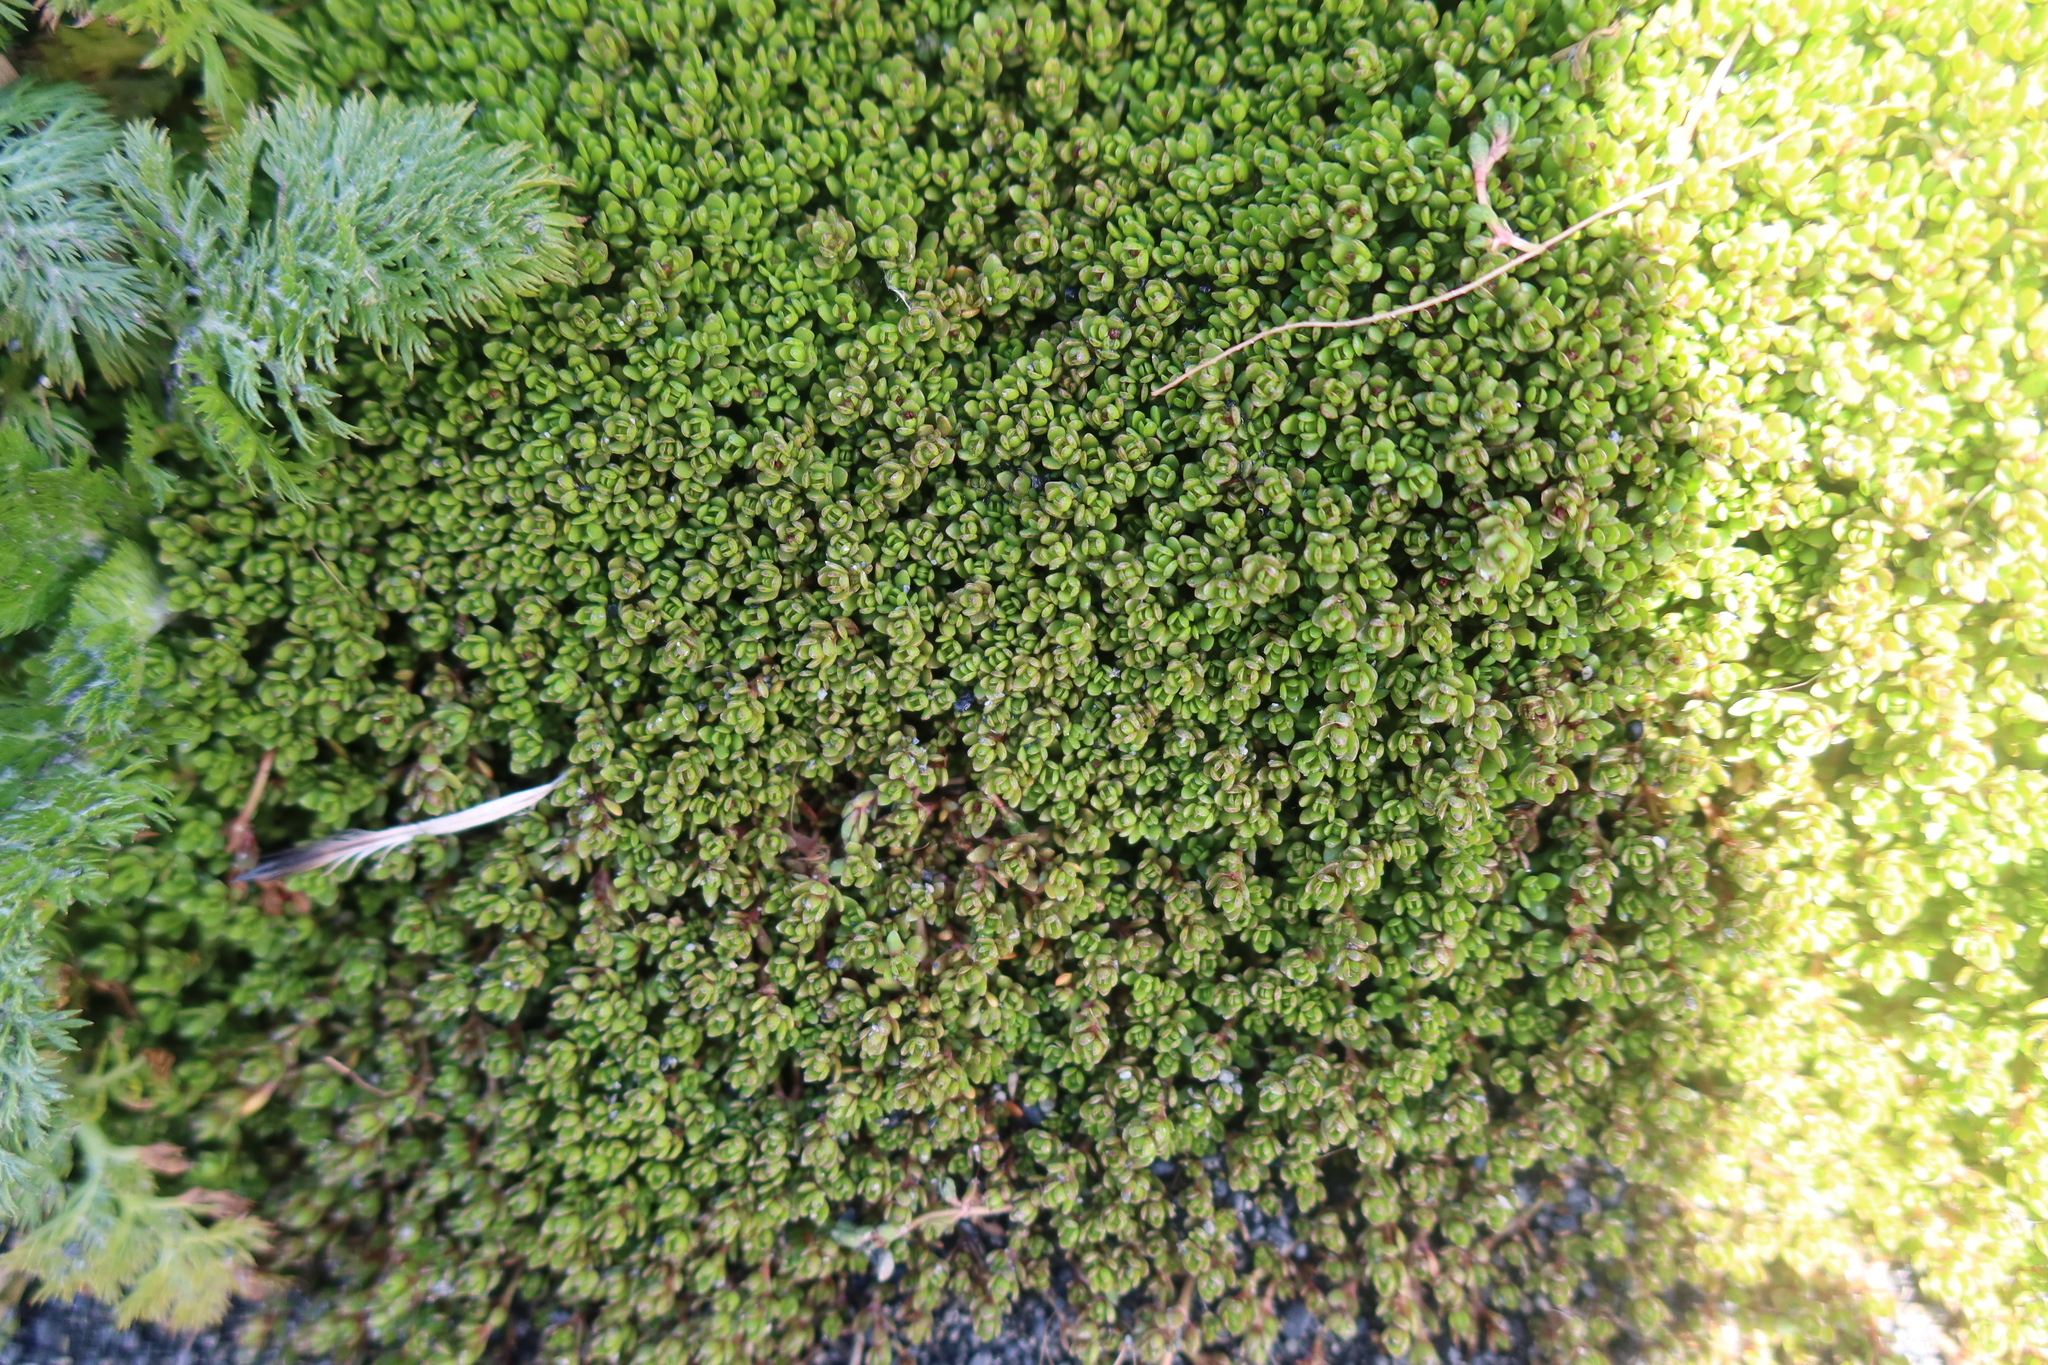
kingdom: Plantae
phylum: Tracheophyta
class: Magnoliopsida
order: Saxifragales
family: Crassulaceae
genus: Crassula
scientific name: Crassula moschata
